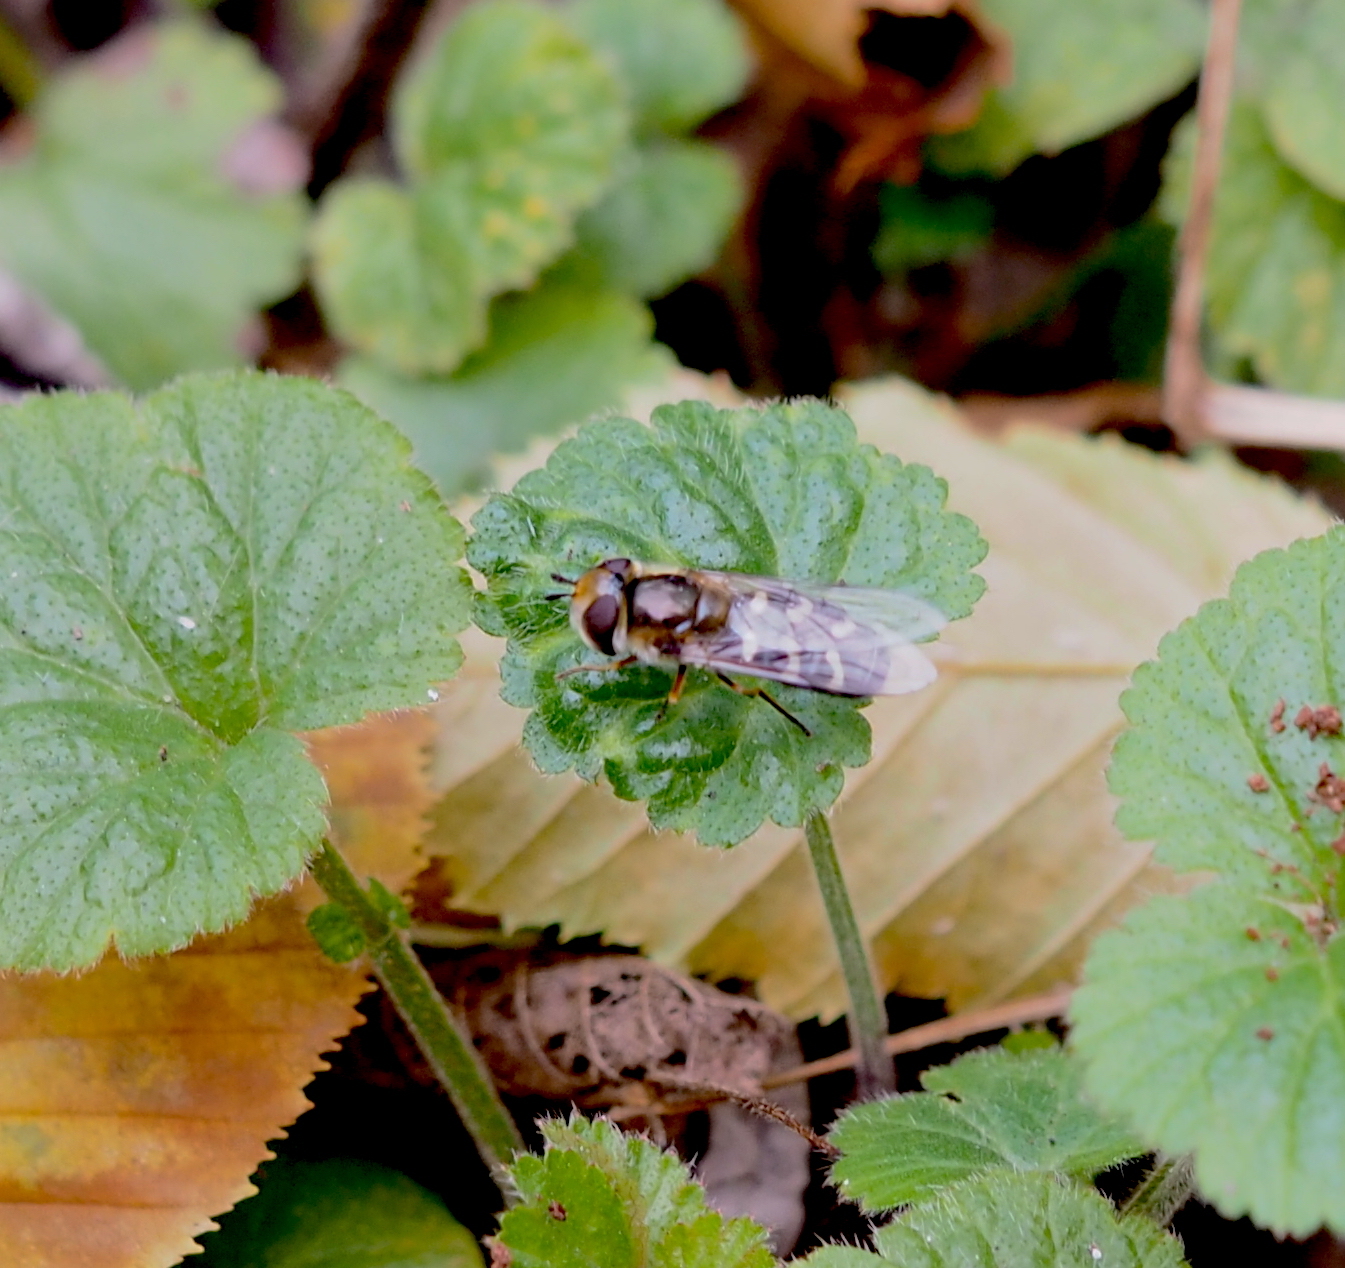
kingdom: Animalia
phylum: Arthropoda
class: Insecta
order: Diptera
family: Syrphidae
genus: Scaeva
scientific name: Scaeva pyrastri
